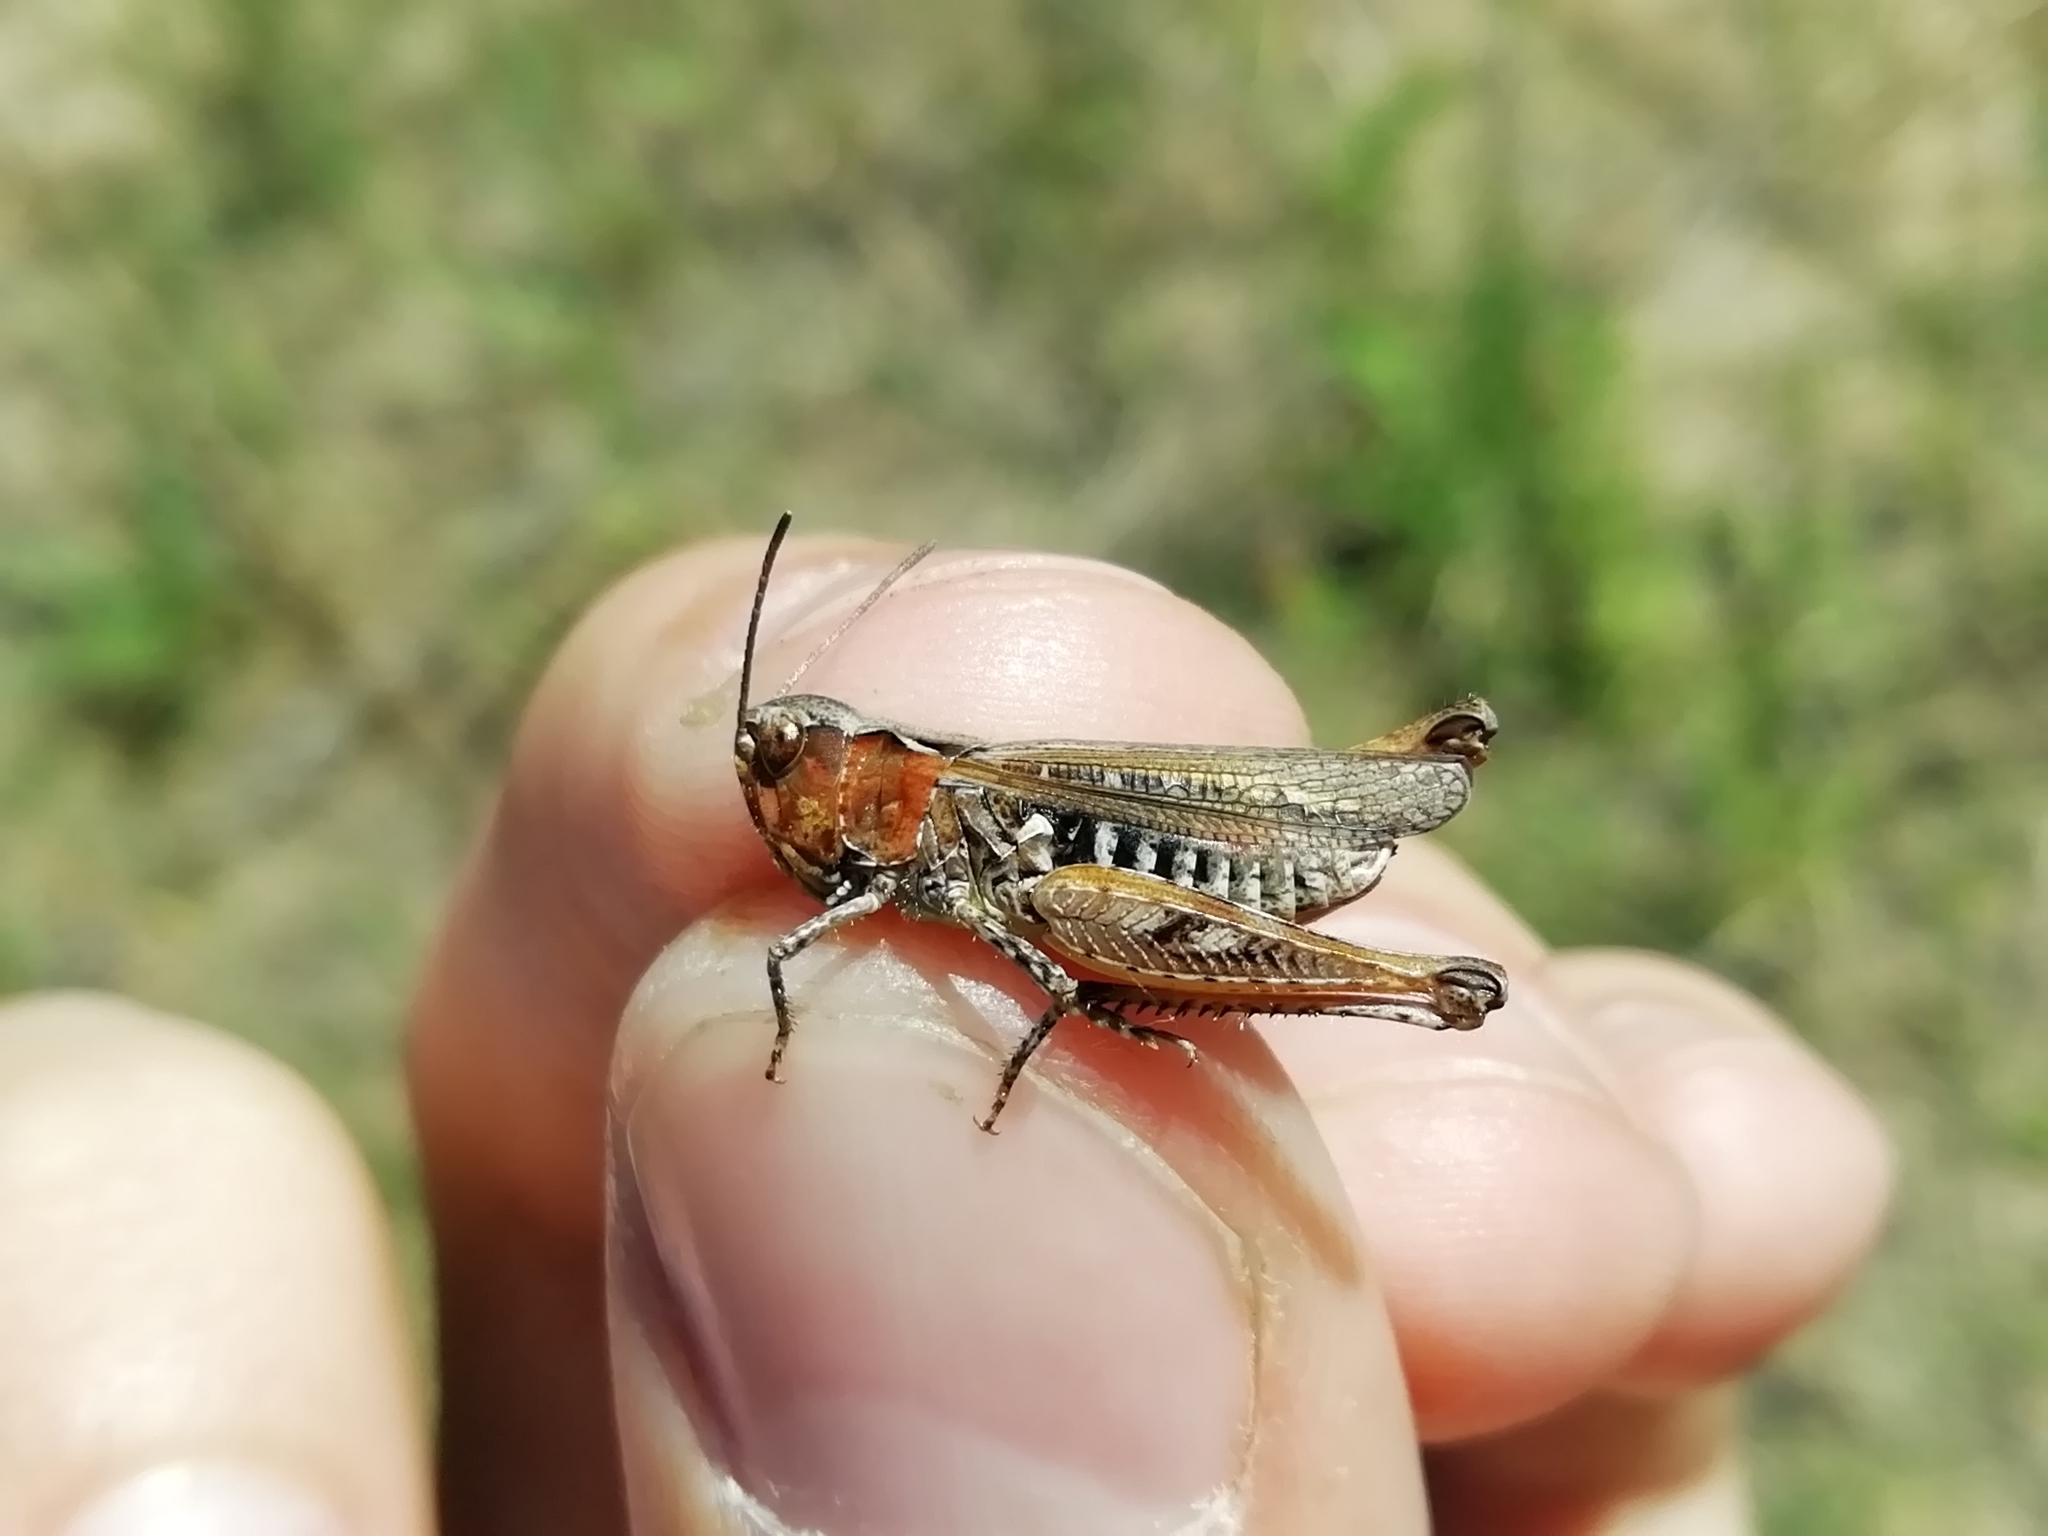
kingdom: Animalia
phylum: Arthropoda
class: Insecta
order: Orthoptera
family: Acrididae
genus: Myrmeleotettix
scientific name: Myrmeleotettix maculatus
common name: Mottled grasshopper
